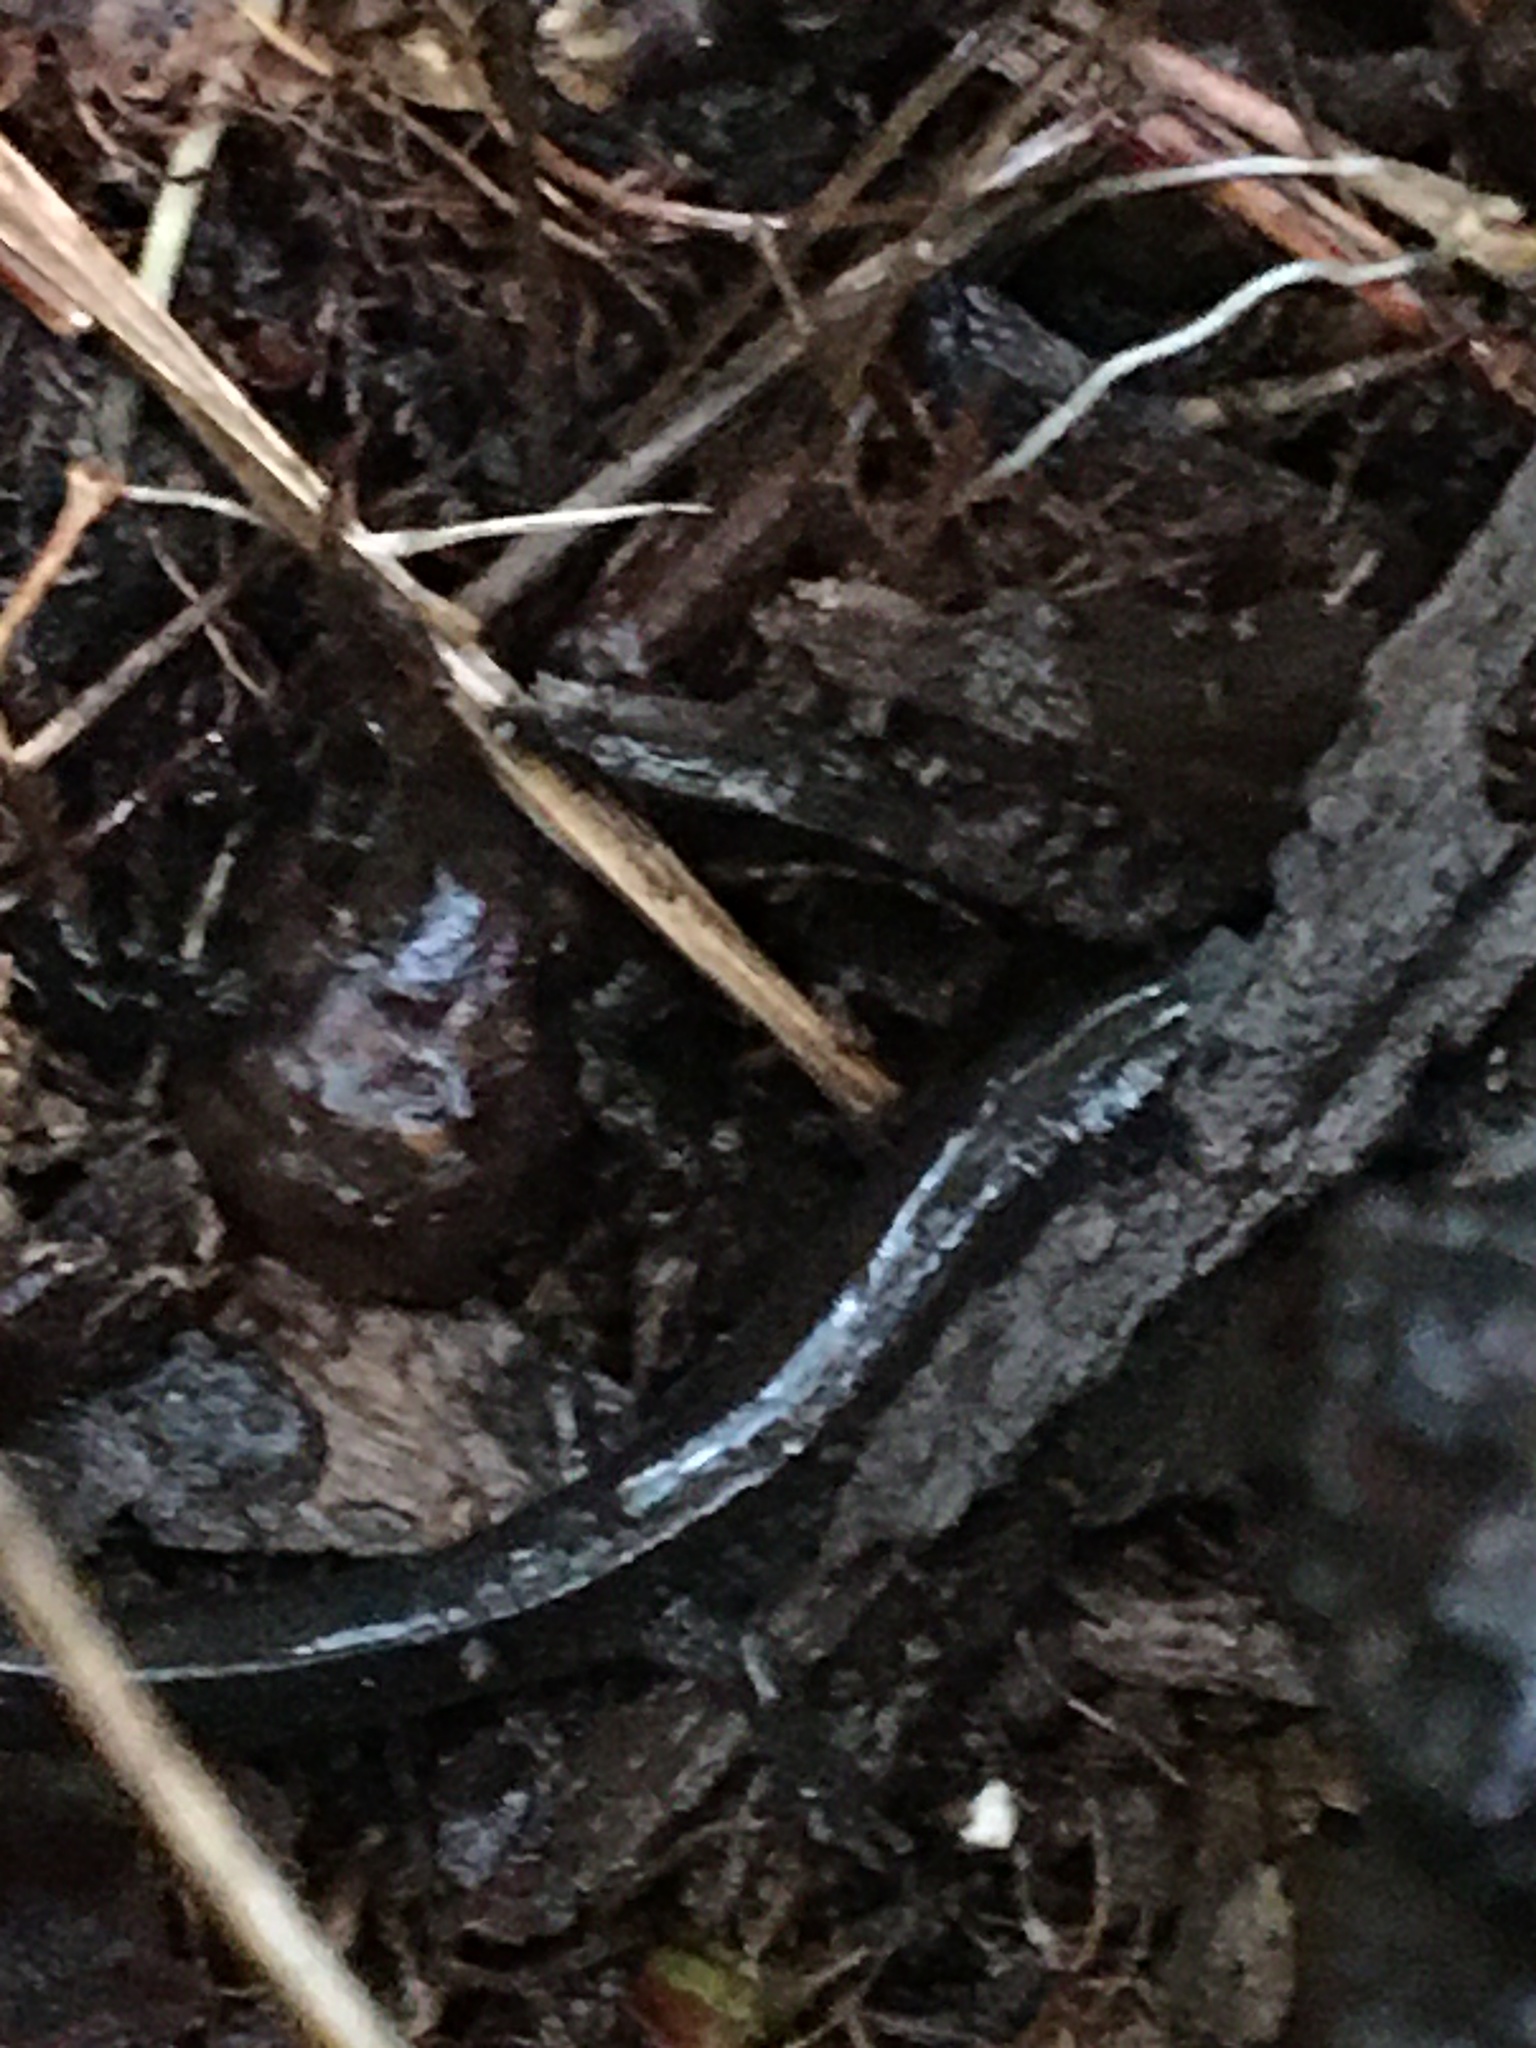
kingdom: Animalia
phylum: Chordata
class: Amphibia
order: Caudata
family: Plethodontidae
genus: Plethodon
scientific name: Plethodon cinereus
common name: Redback salamander
